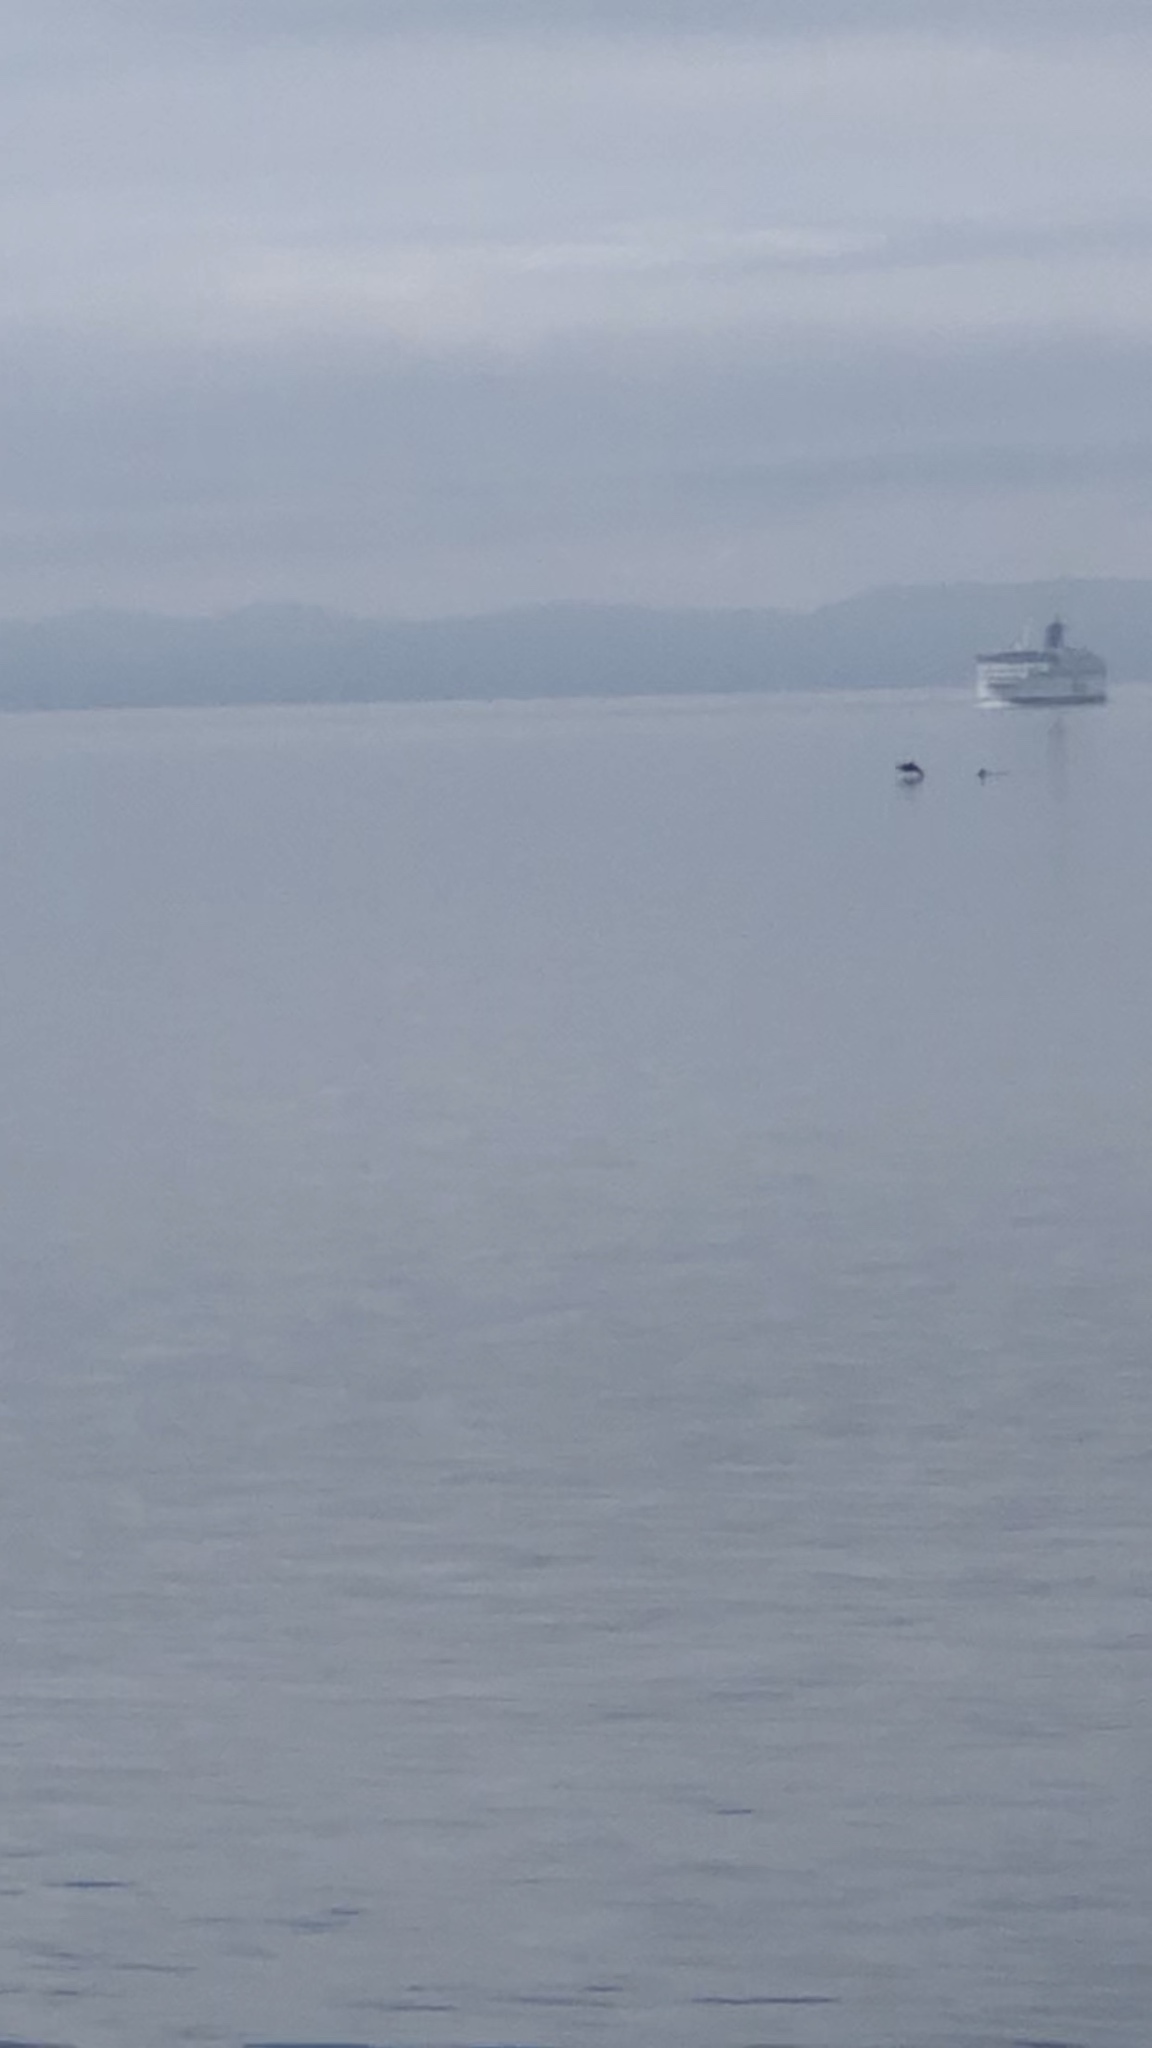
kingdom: Animalia
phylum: Chordata
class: Mammalia
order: Cetacea
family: Delphinidae
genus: Orcinus
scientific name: Orcinus orca
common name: Killer whale
